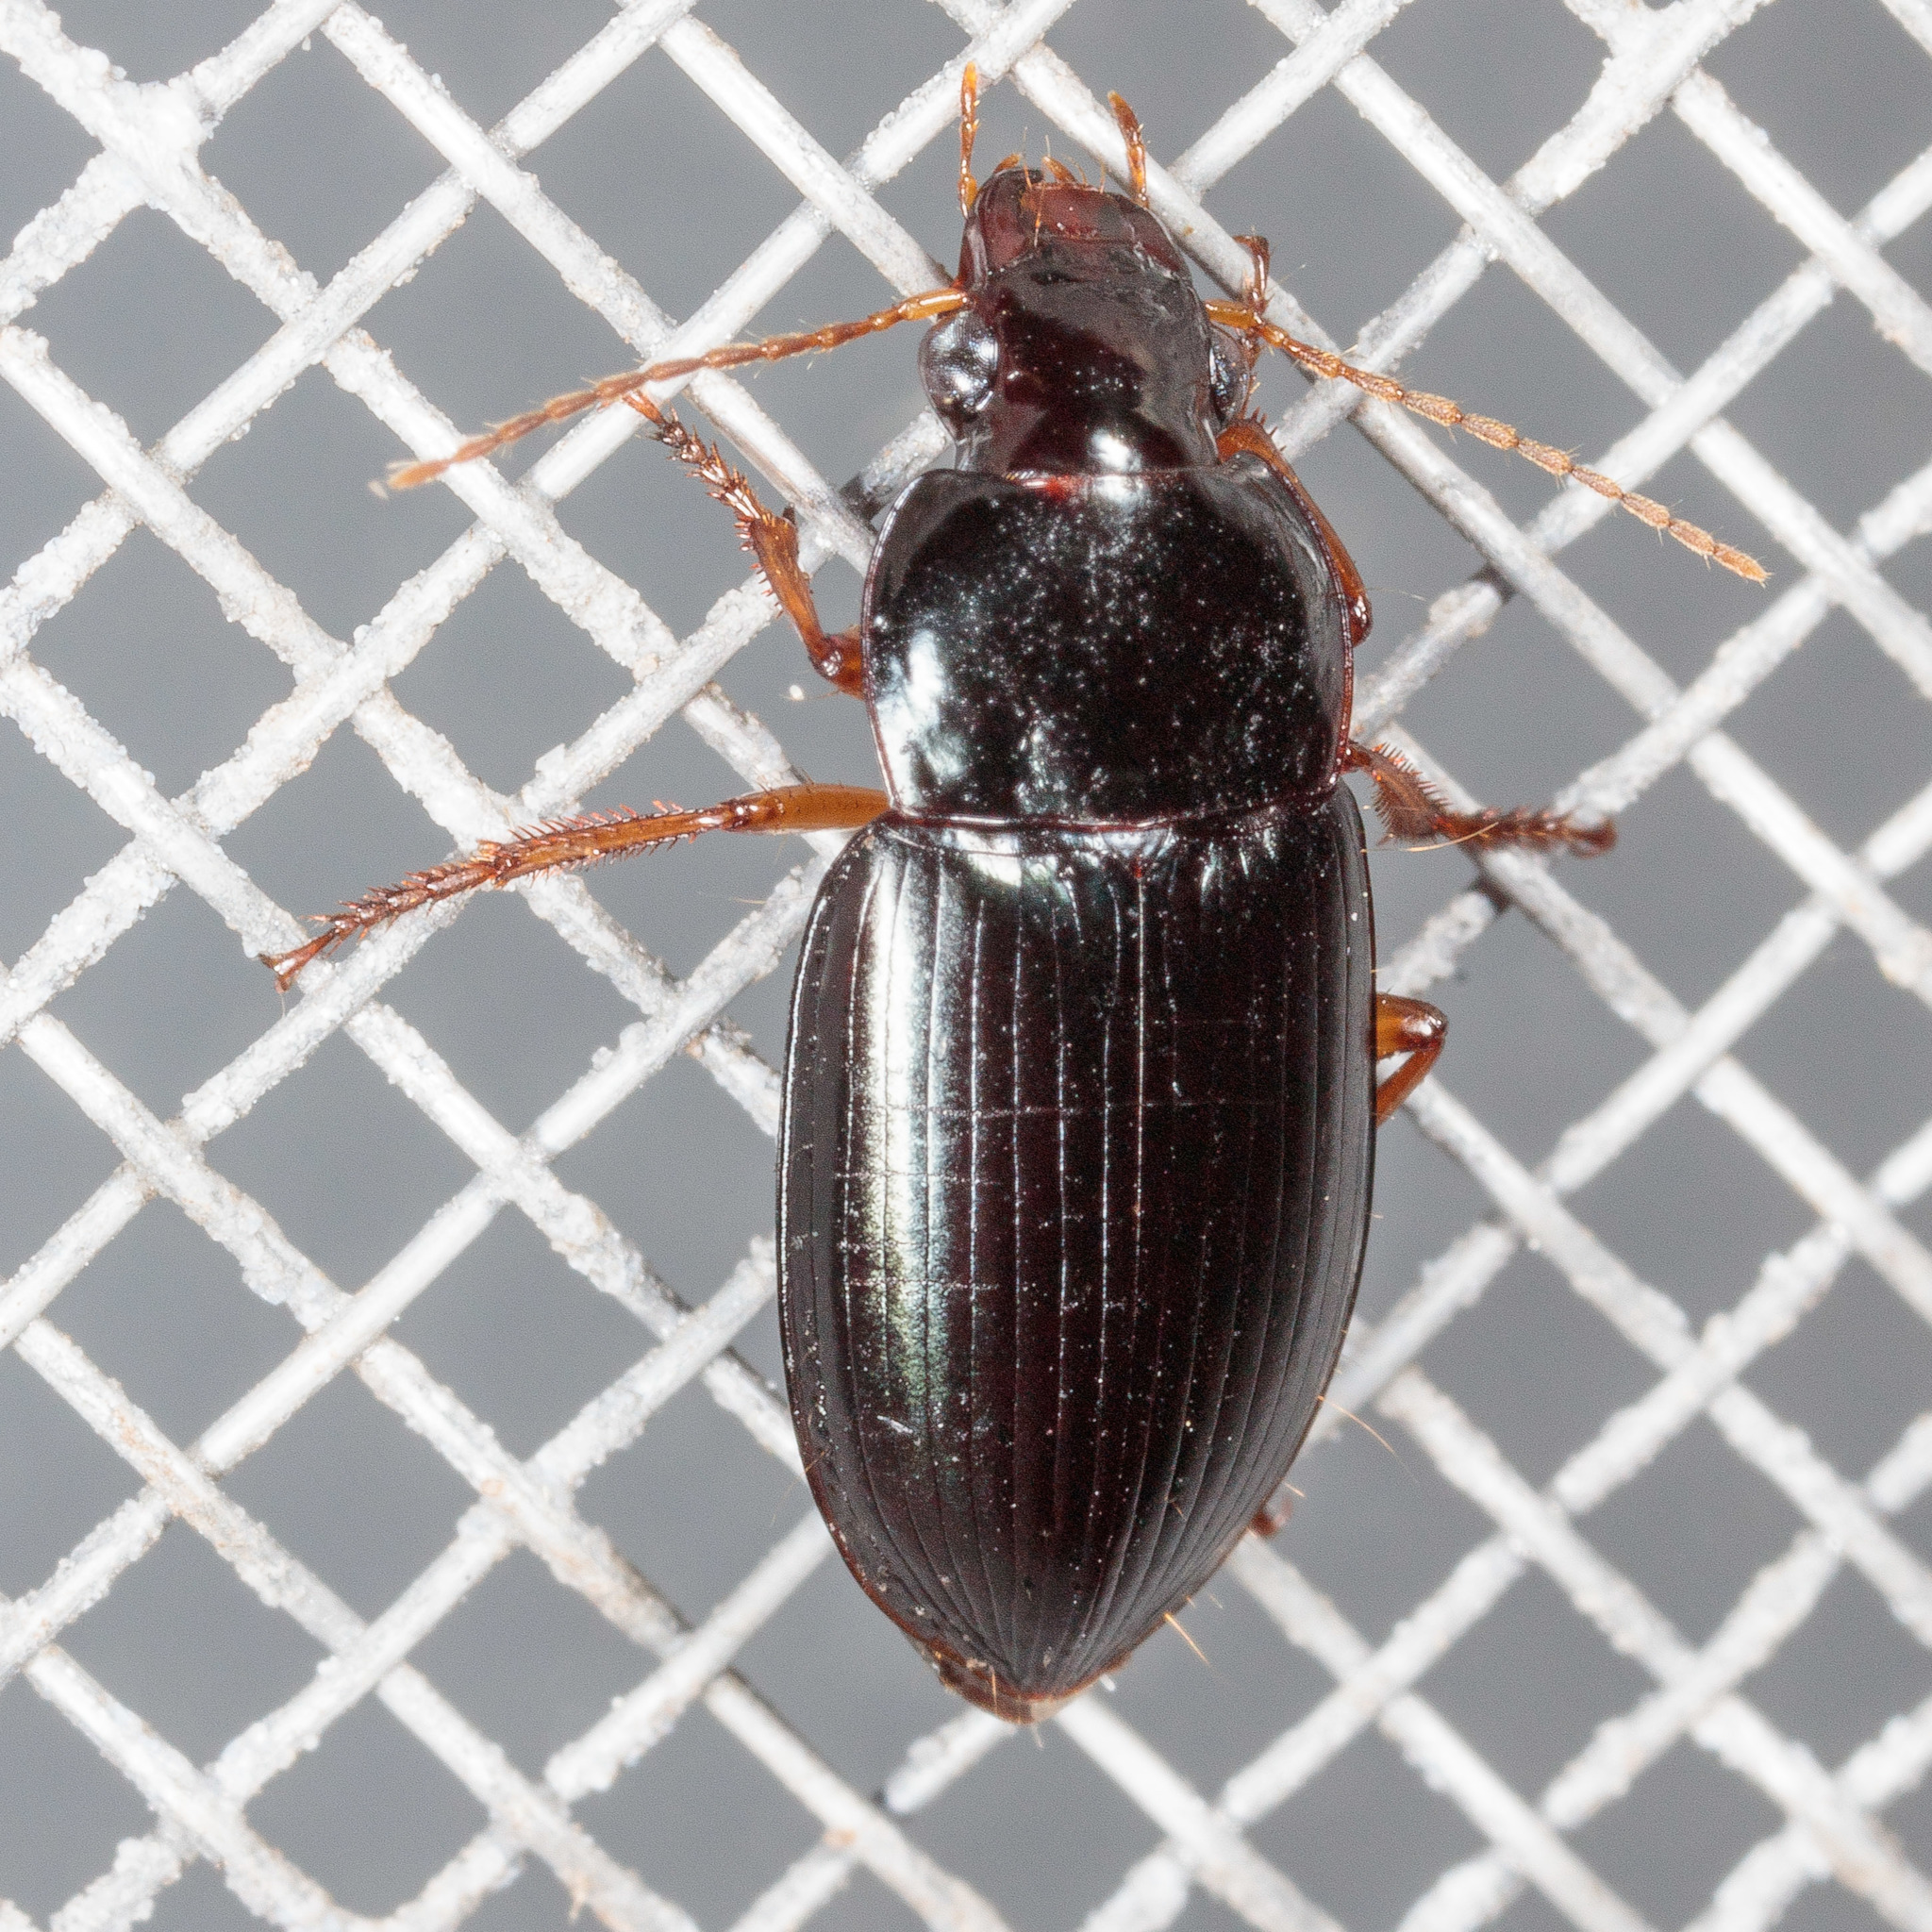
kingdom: Animalia
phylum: Arthropoda
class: Insecta
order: Coleoptera
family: Carabidae
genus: Notiobia
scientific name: Notiobia sayi
